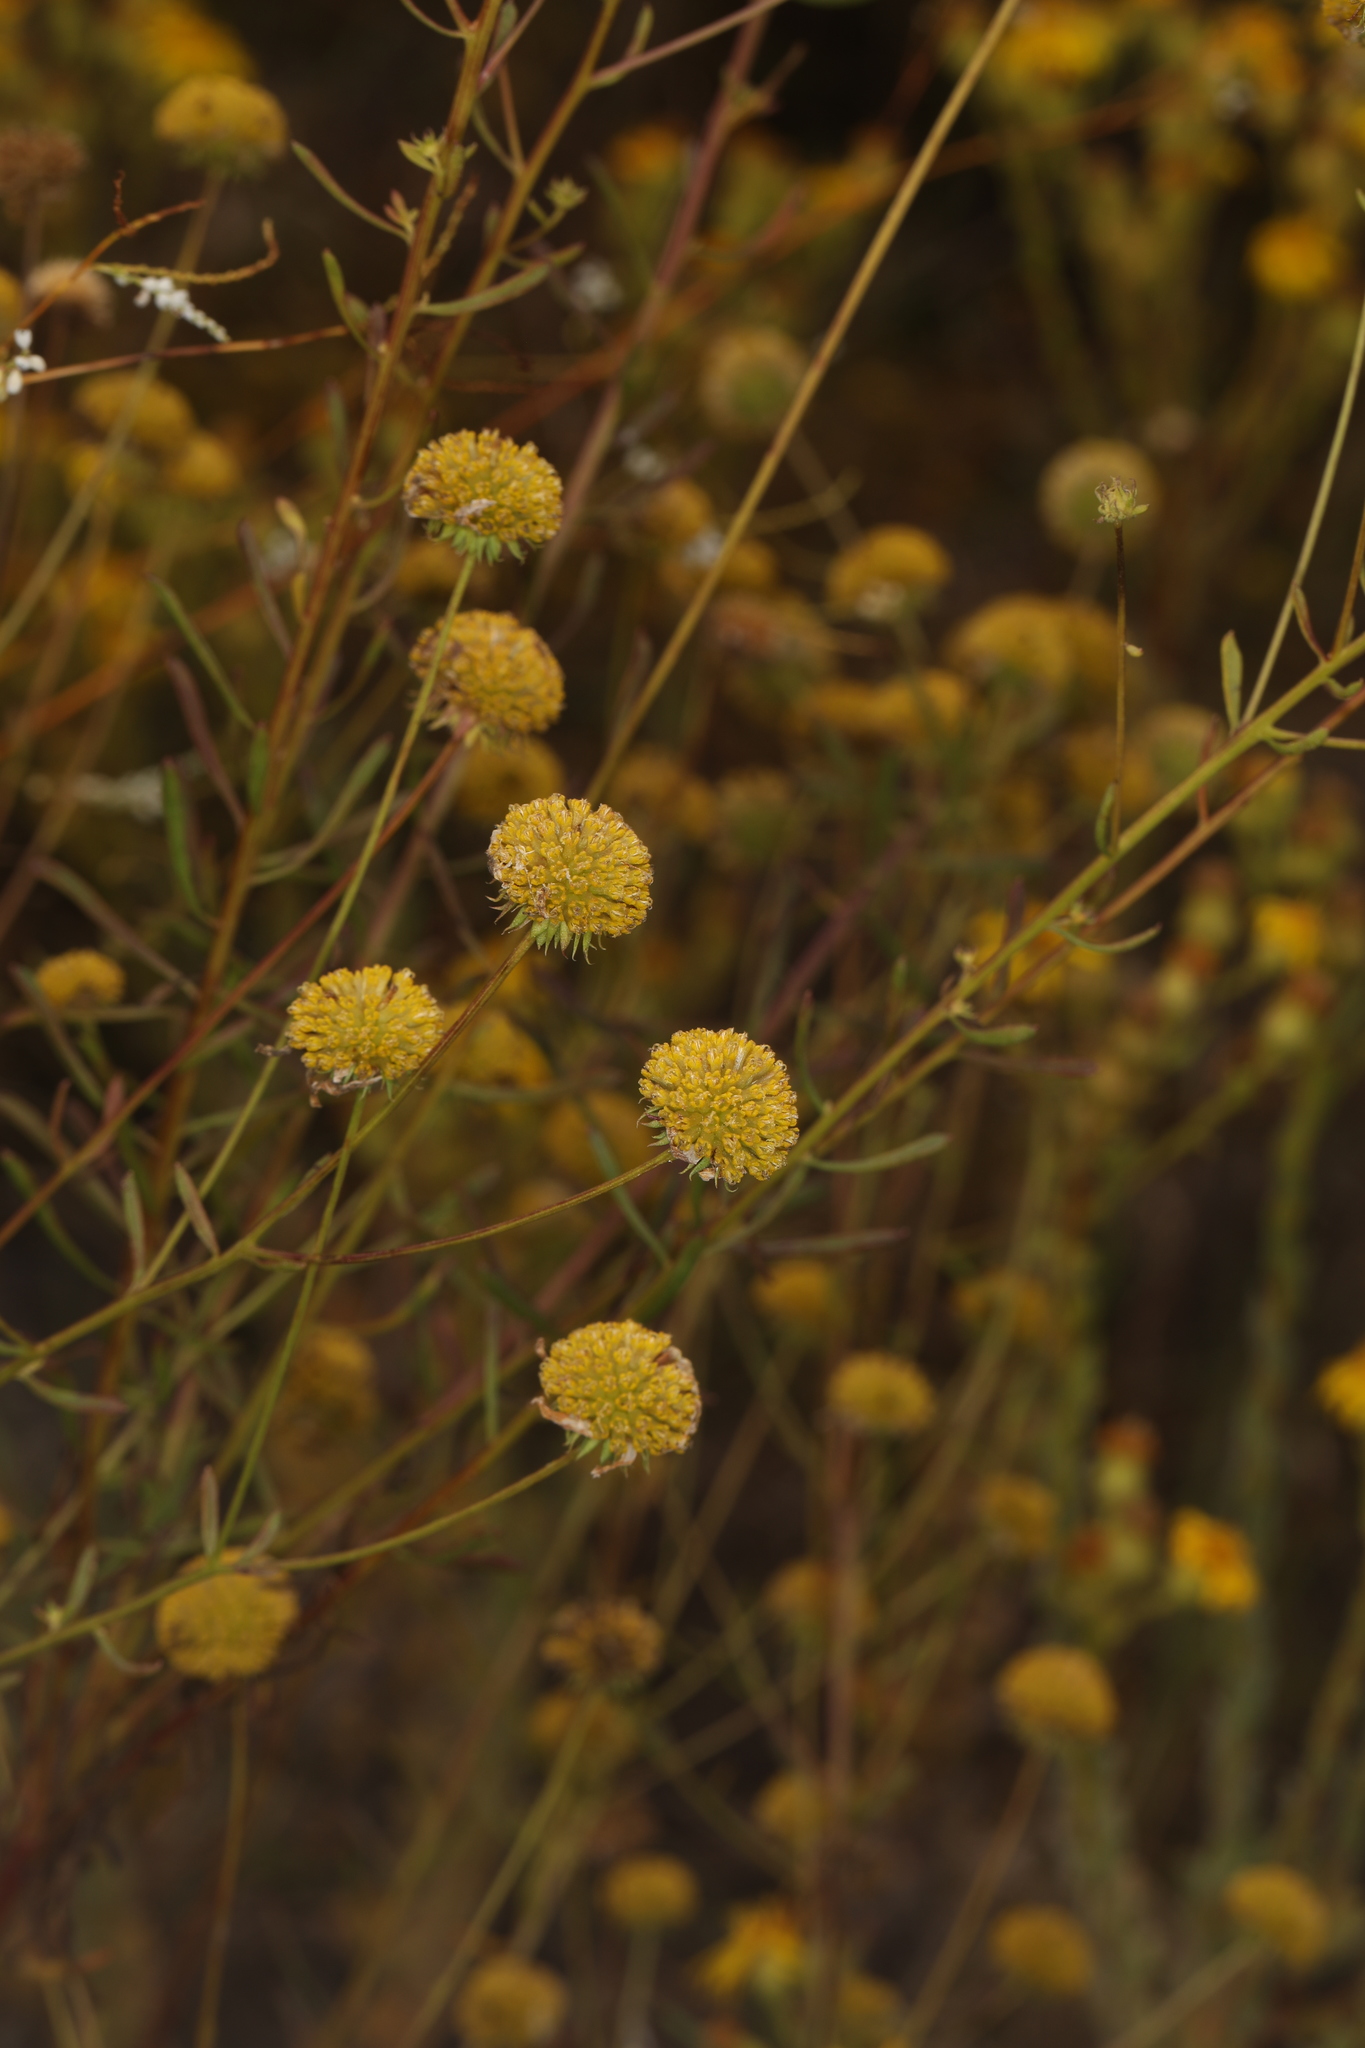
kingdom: Plantae
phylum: Tracheophyta
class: Magnoliopsida
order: Asterales
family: Asteraceae
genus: Balduina
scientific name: Balduina angustifolia
